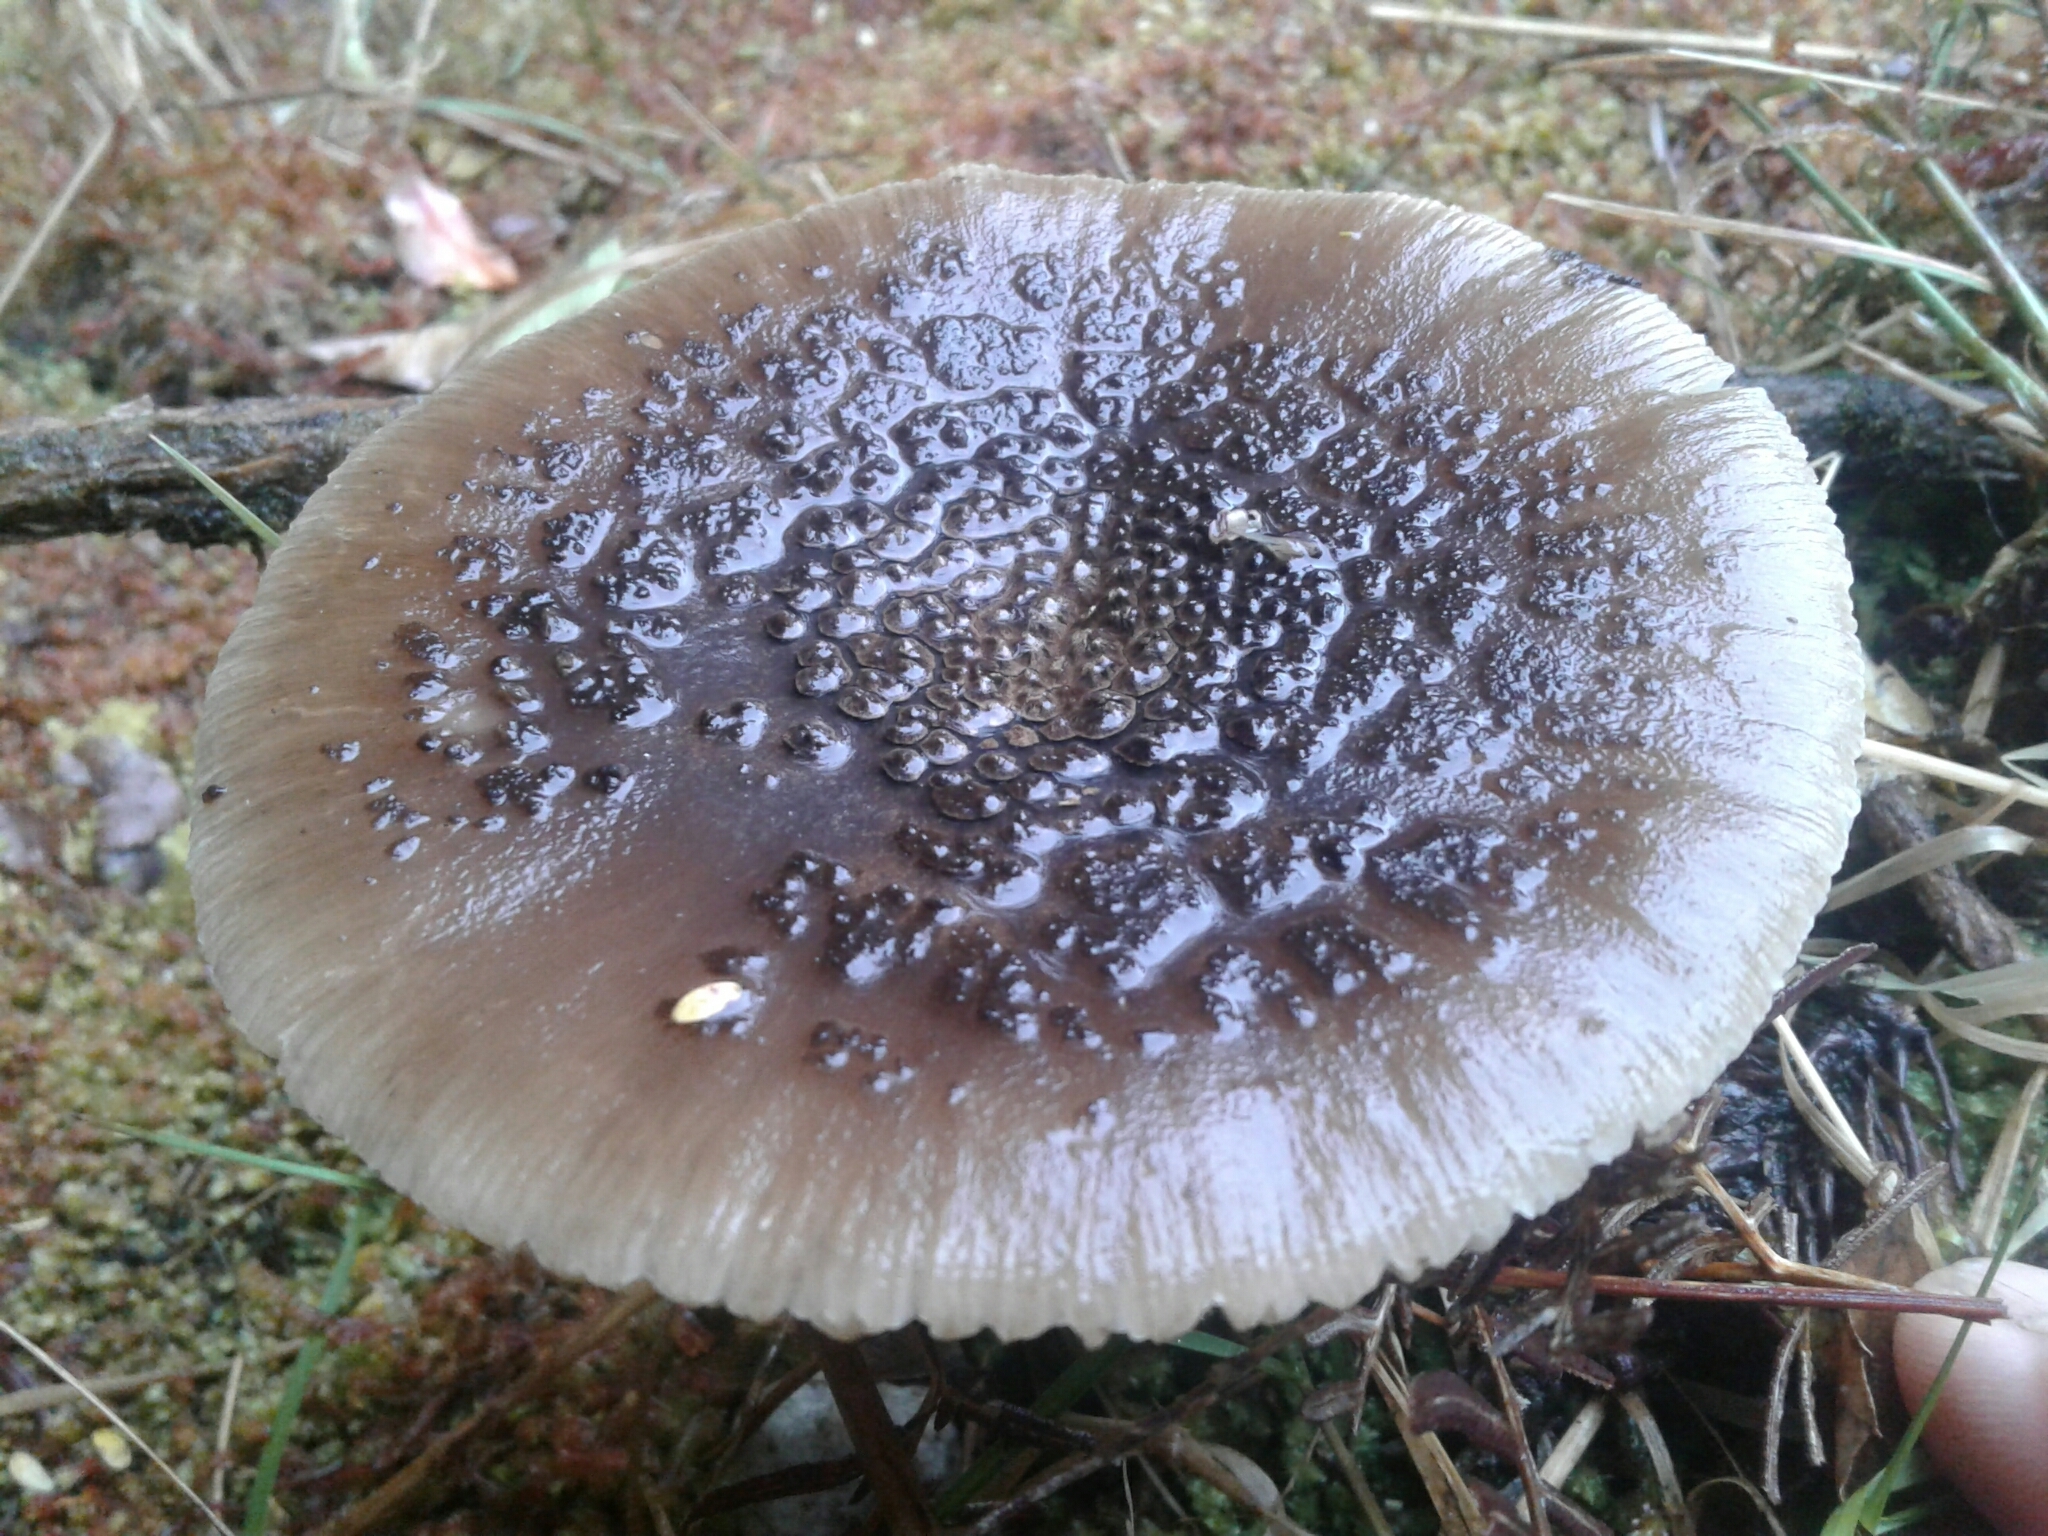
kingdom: Fungi
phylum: Basidiomycota
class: Agaricomycetes
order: Agaricales
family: Amanitaceae
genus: Amanita
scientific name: Amanita nothofagi
